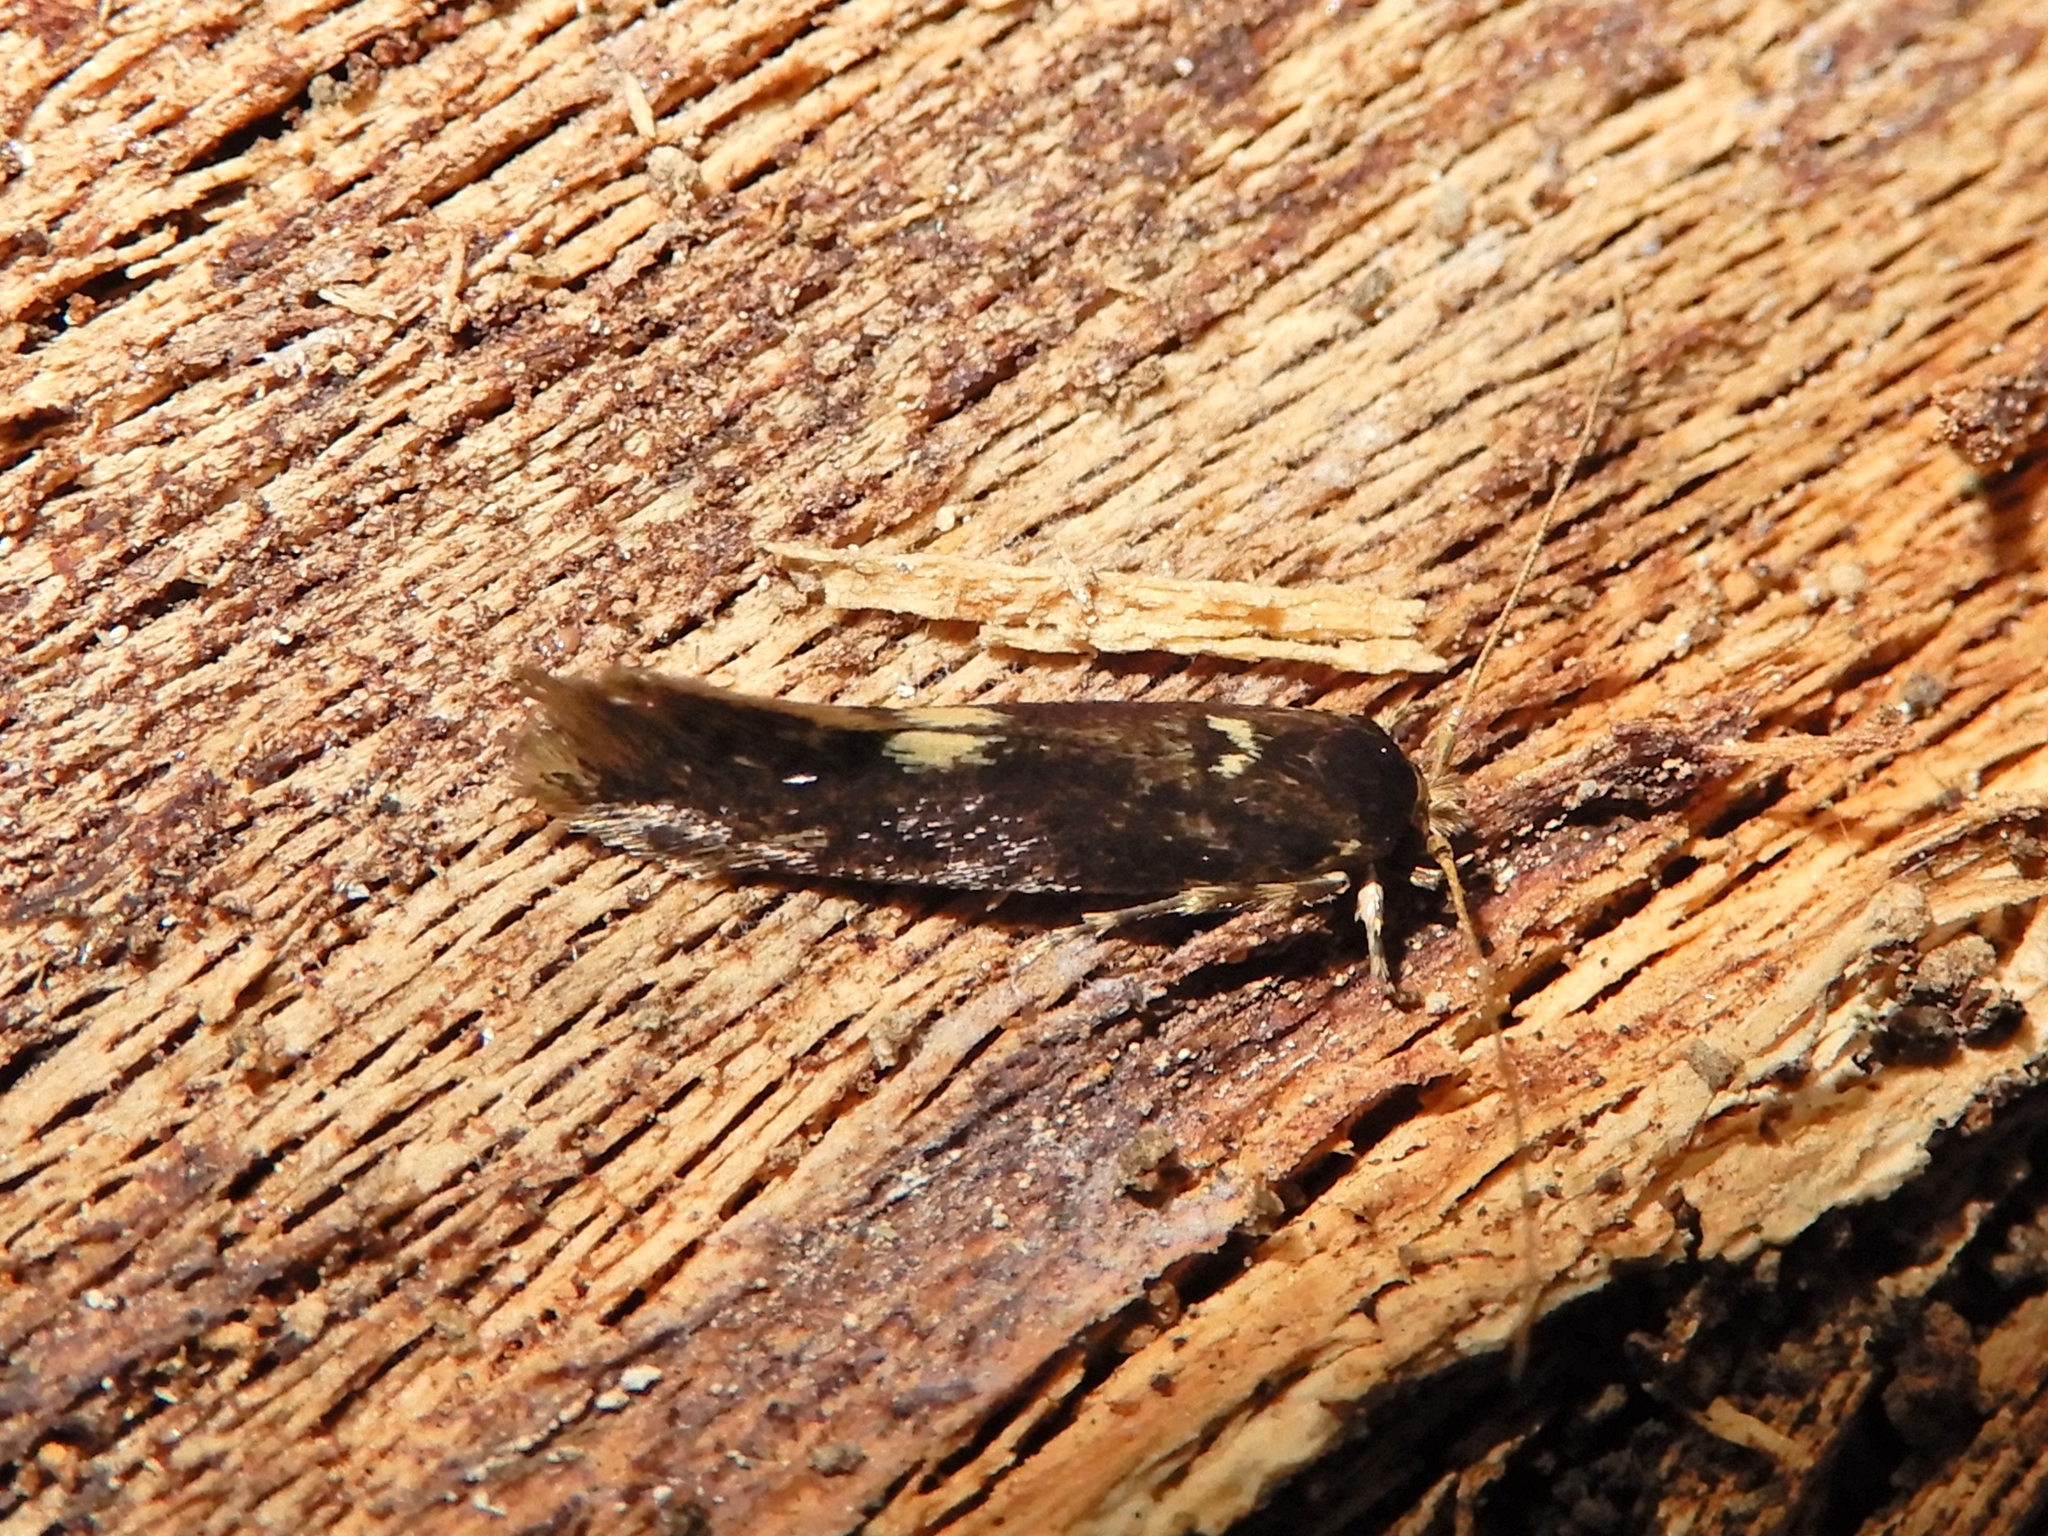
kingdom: Animalia
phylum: Arthropoda
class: Insecta
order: Lepidoptera
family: Tineidae
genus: Opogona
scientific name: Opogona omoscopa
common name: Moth
